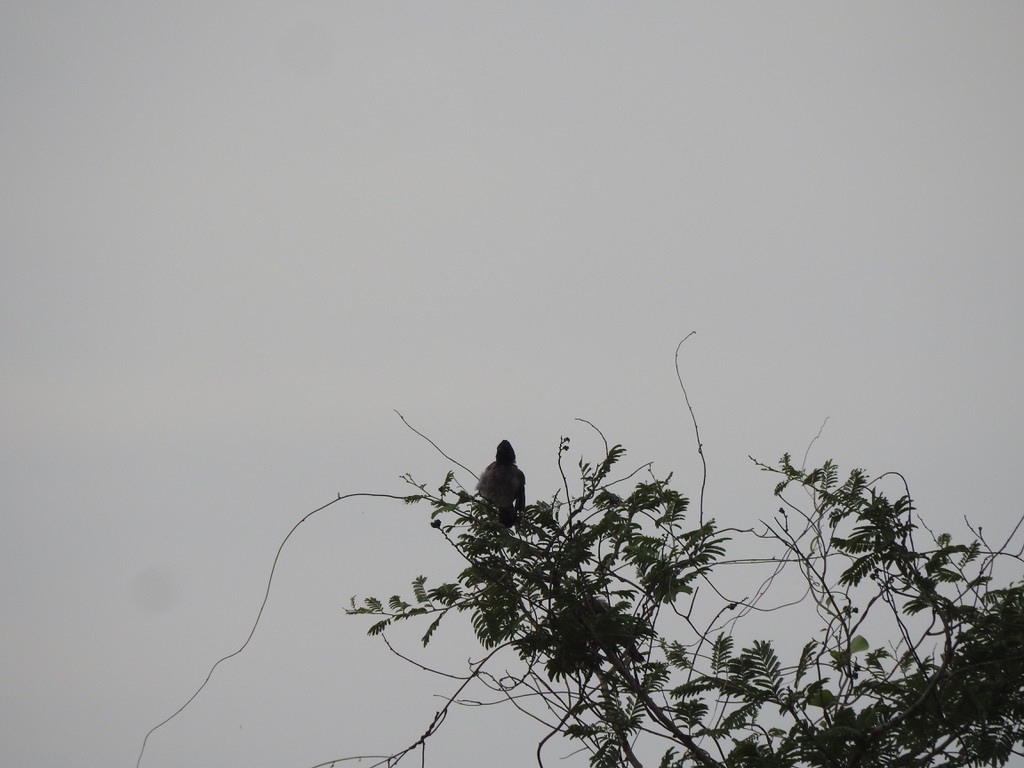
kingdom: Animalia
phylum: Chordata
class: Aves
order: Passeriformes
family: Pycnonotidae
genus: Pycnonotus
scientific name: Pycnonotus cafer
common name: Red-vented bulbul
